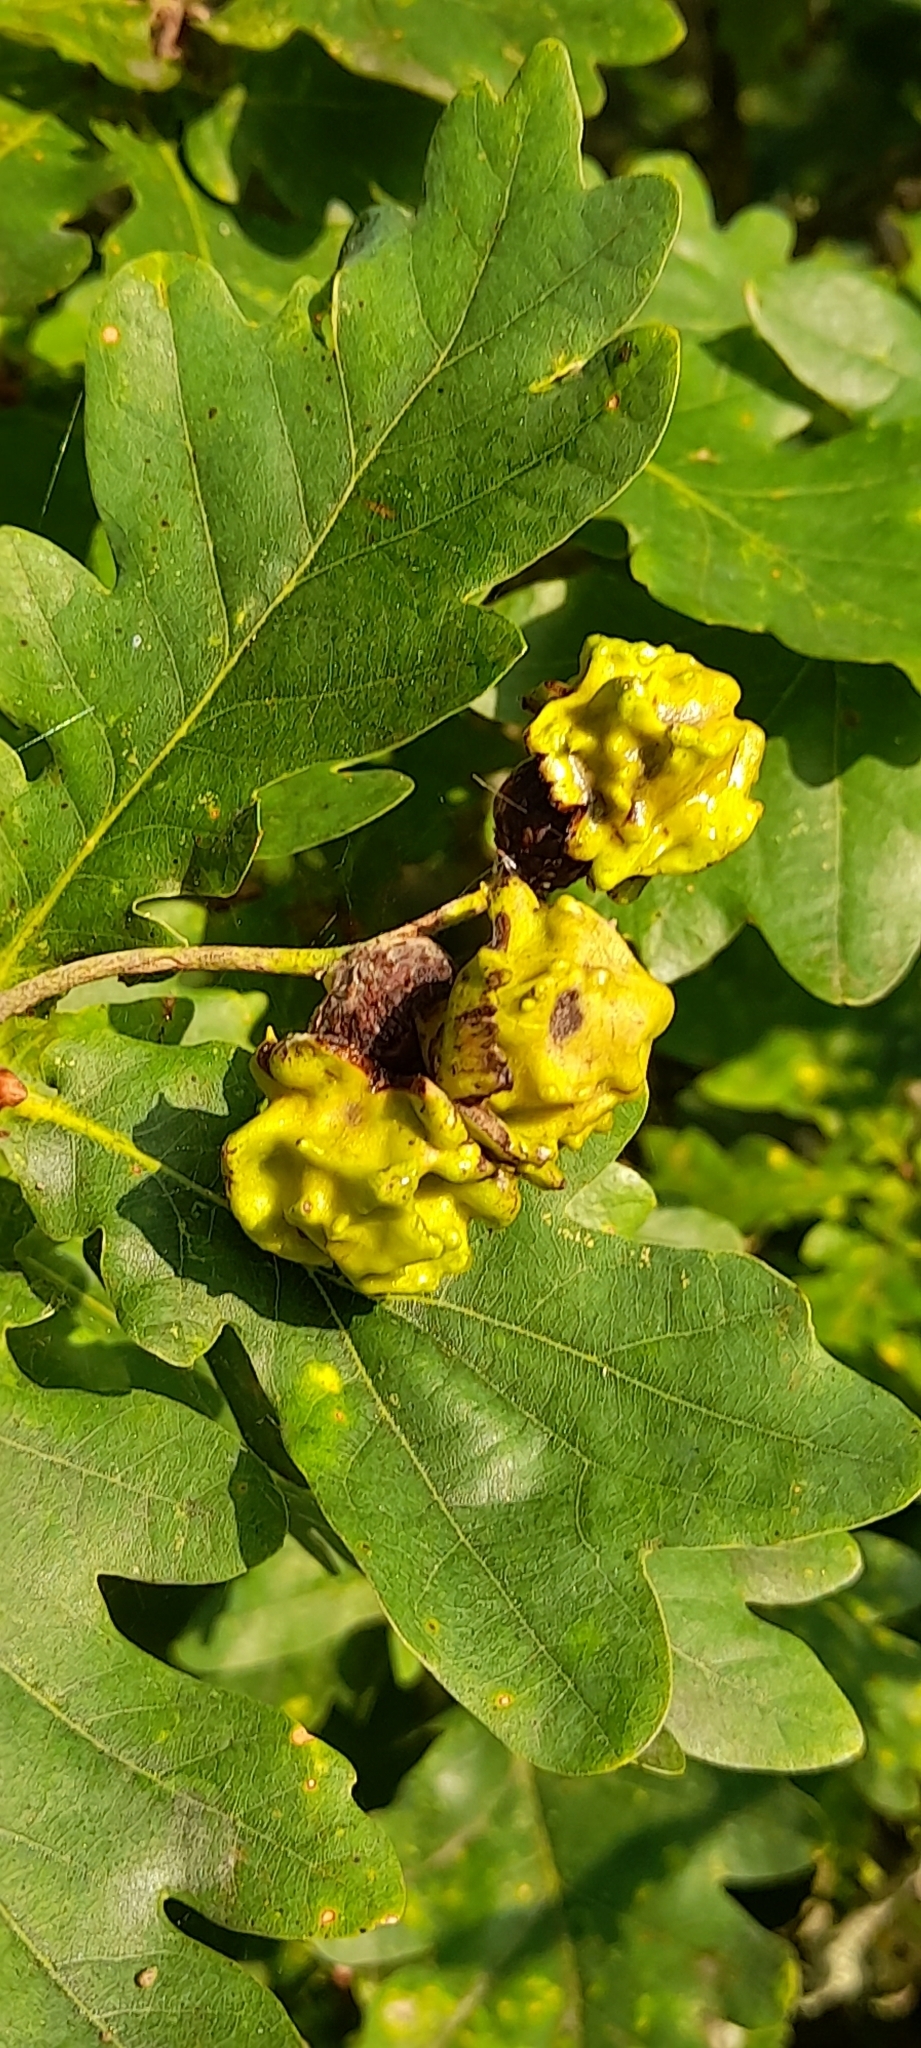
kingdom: Animalia
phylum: Arthropoda
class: Insecta
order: Hymenoptera
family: Cynipidae
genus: Andricus
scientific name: Andricus quercuscalicis
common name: Knopper gall
